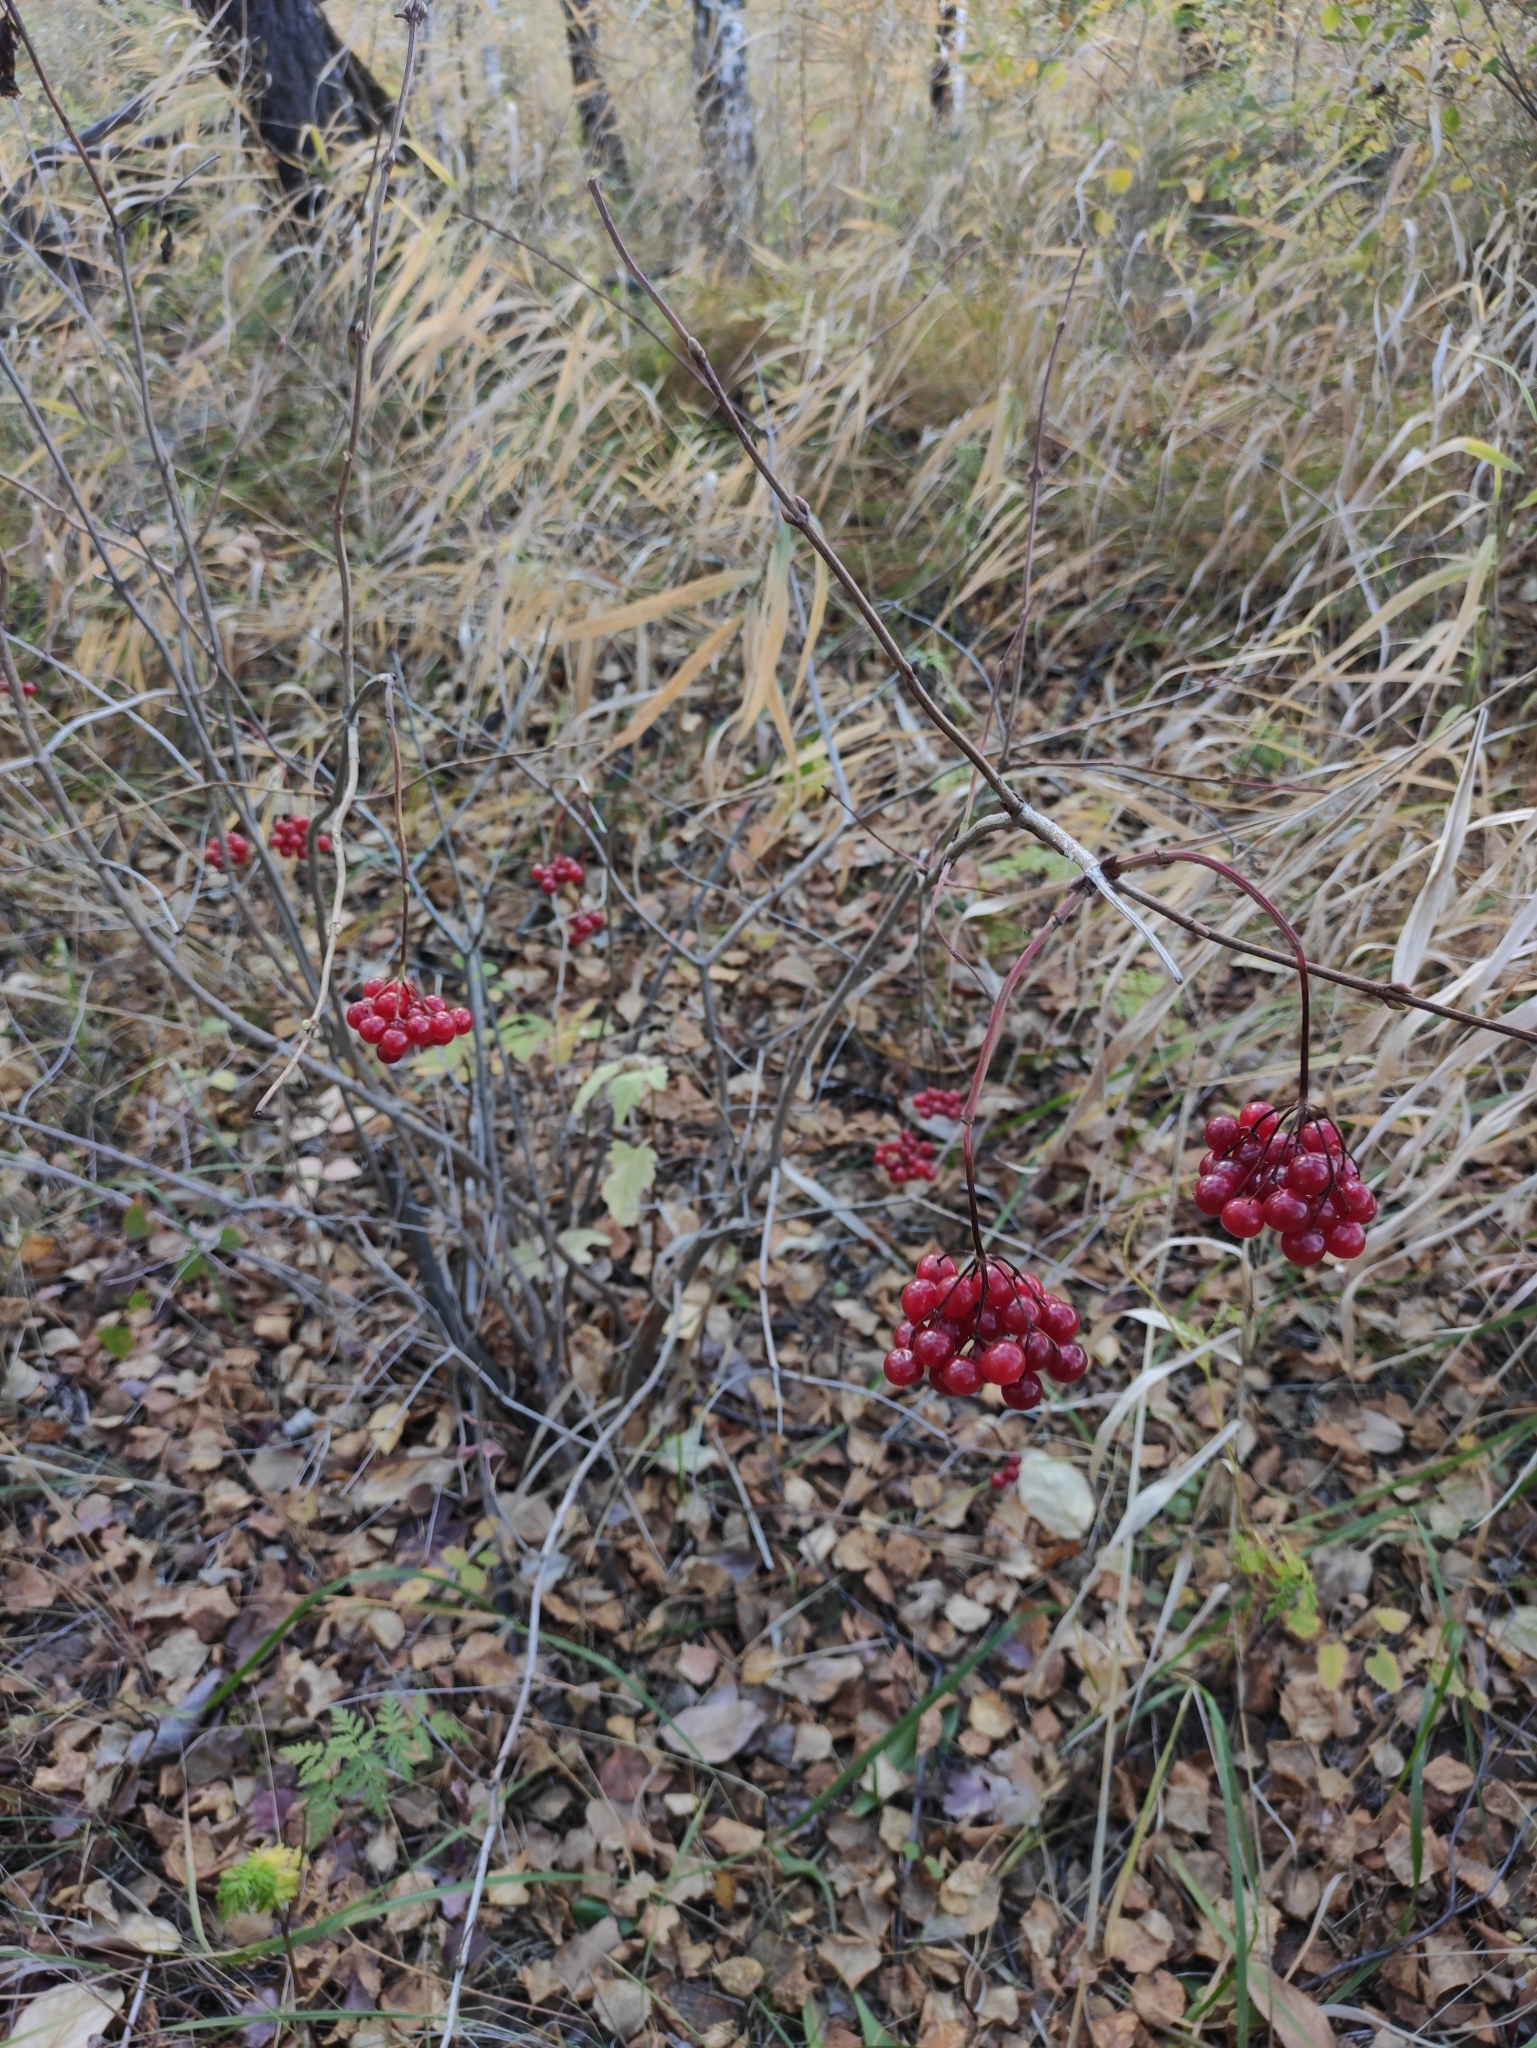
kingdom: Plantae
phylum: Tracheophyta
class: Magnoliopsida
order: Dipsacales
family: Viburnaceae
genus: Viburnum
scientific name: Viburnum opulus
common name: Guelder-rose
